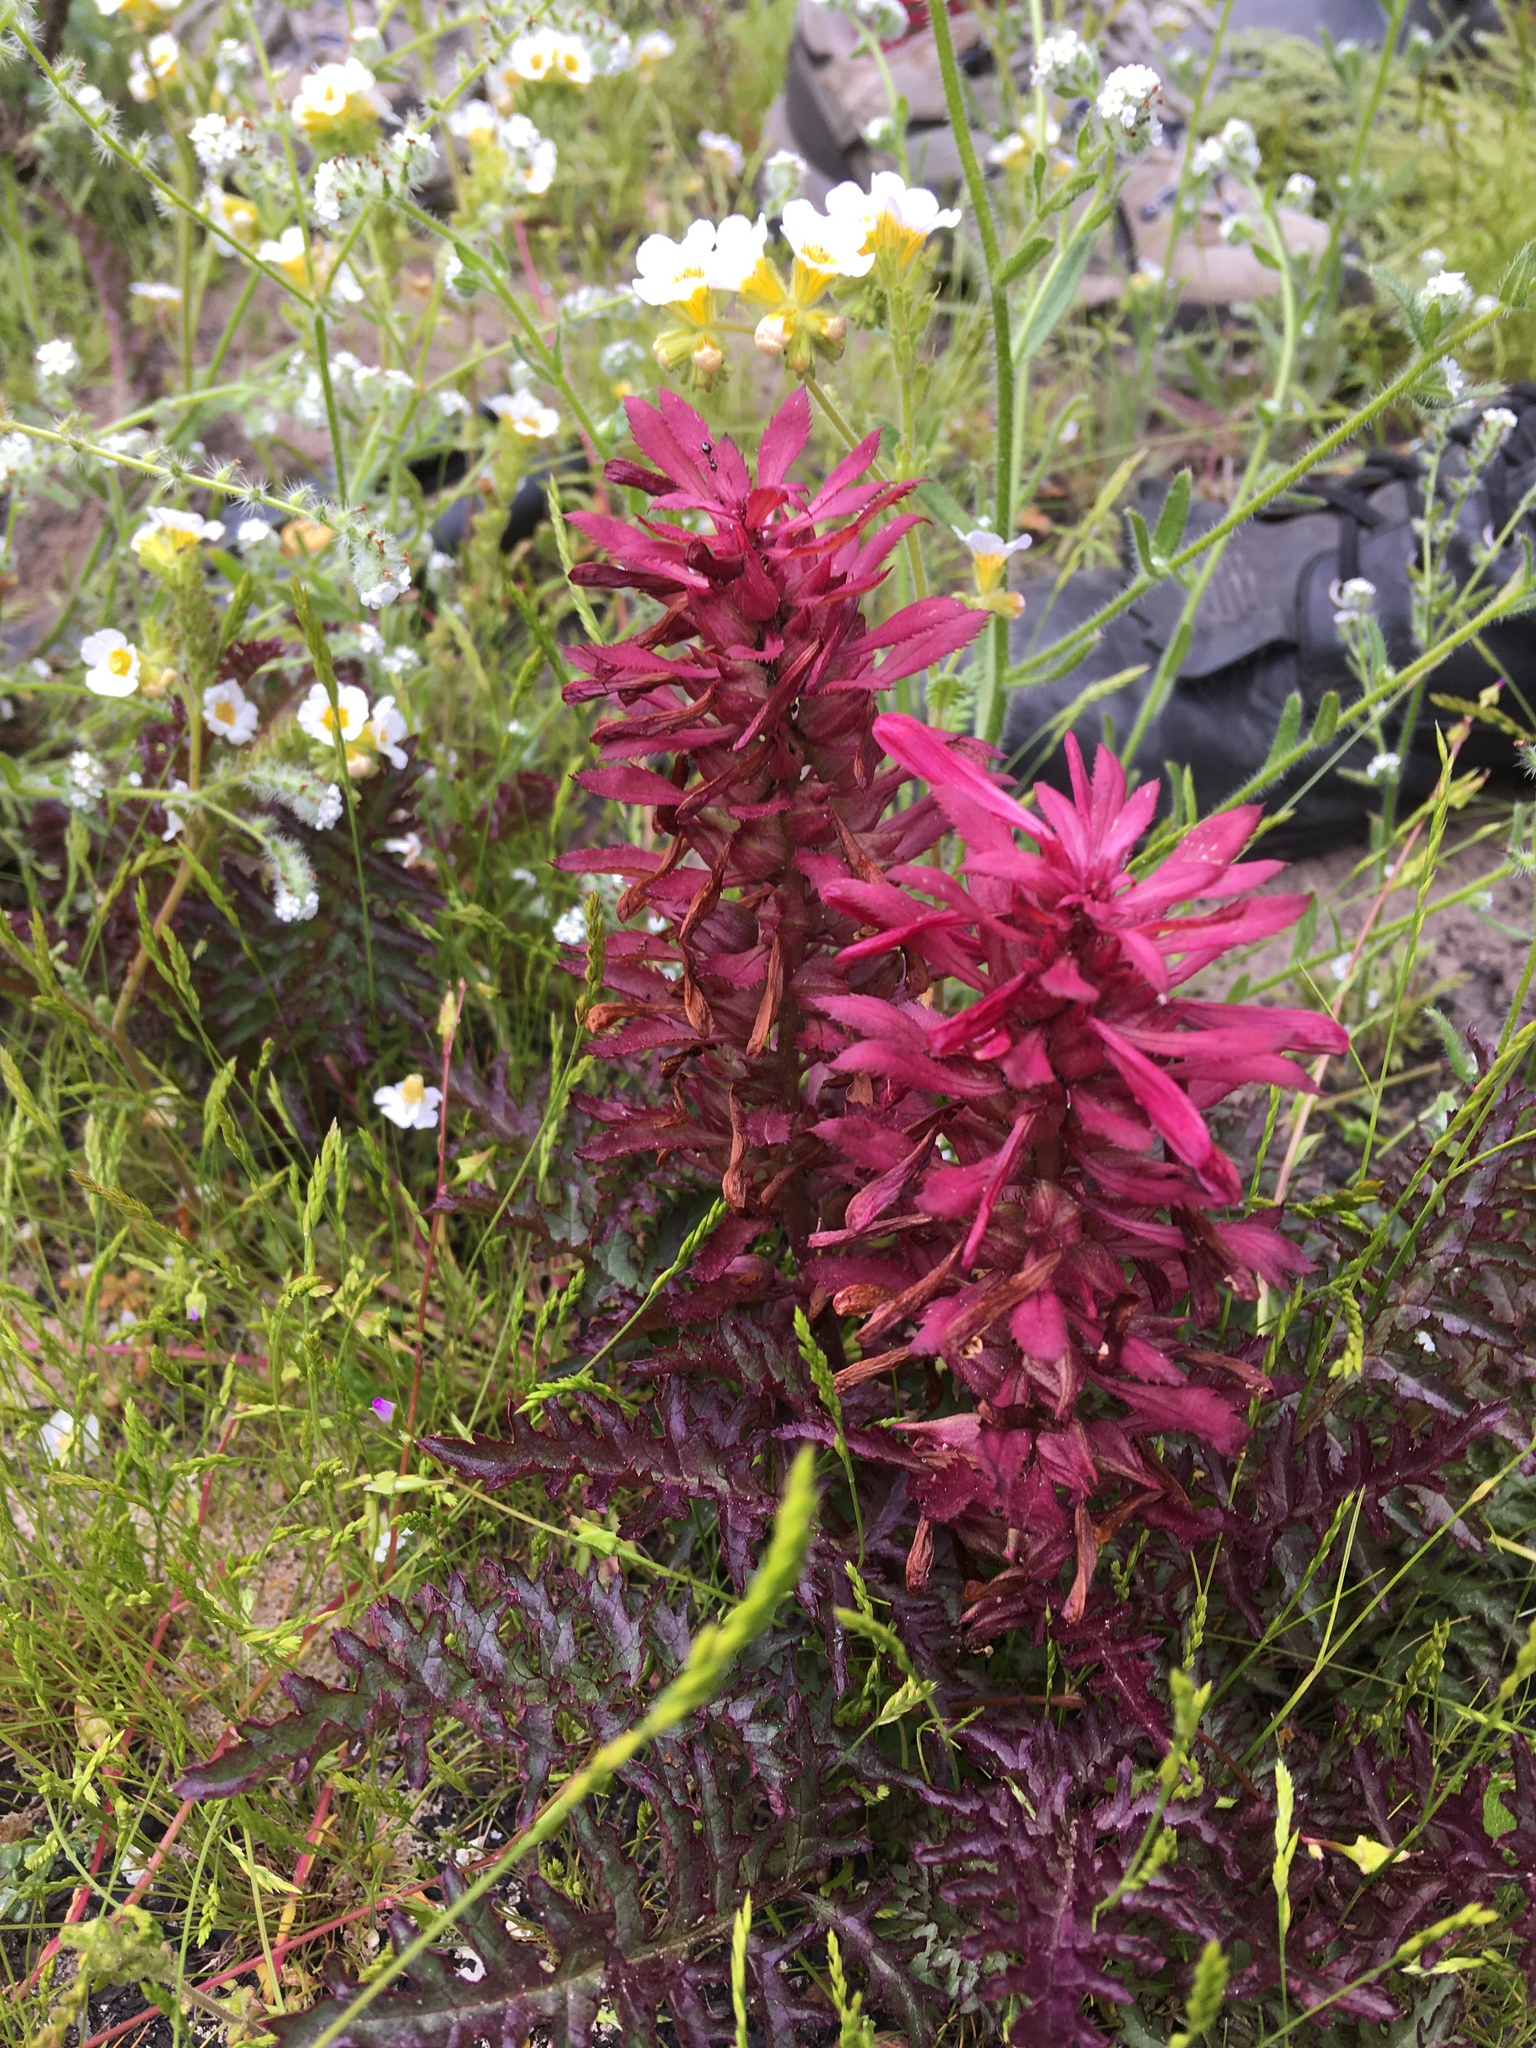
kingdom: Plantae
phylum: Tracheophyta
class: Magnoliopsida
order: Lamiales
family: Orobanchaceae
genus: Pedicularis
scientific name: Pedicularis densiflora
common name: Indian warrior
